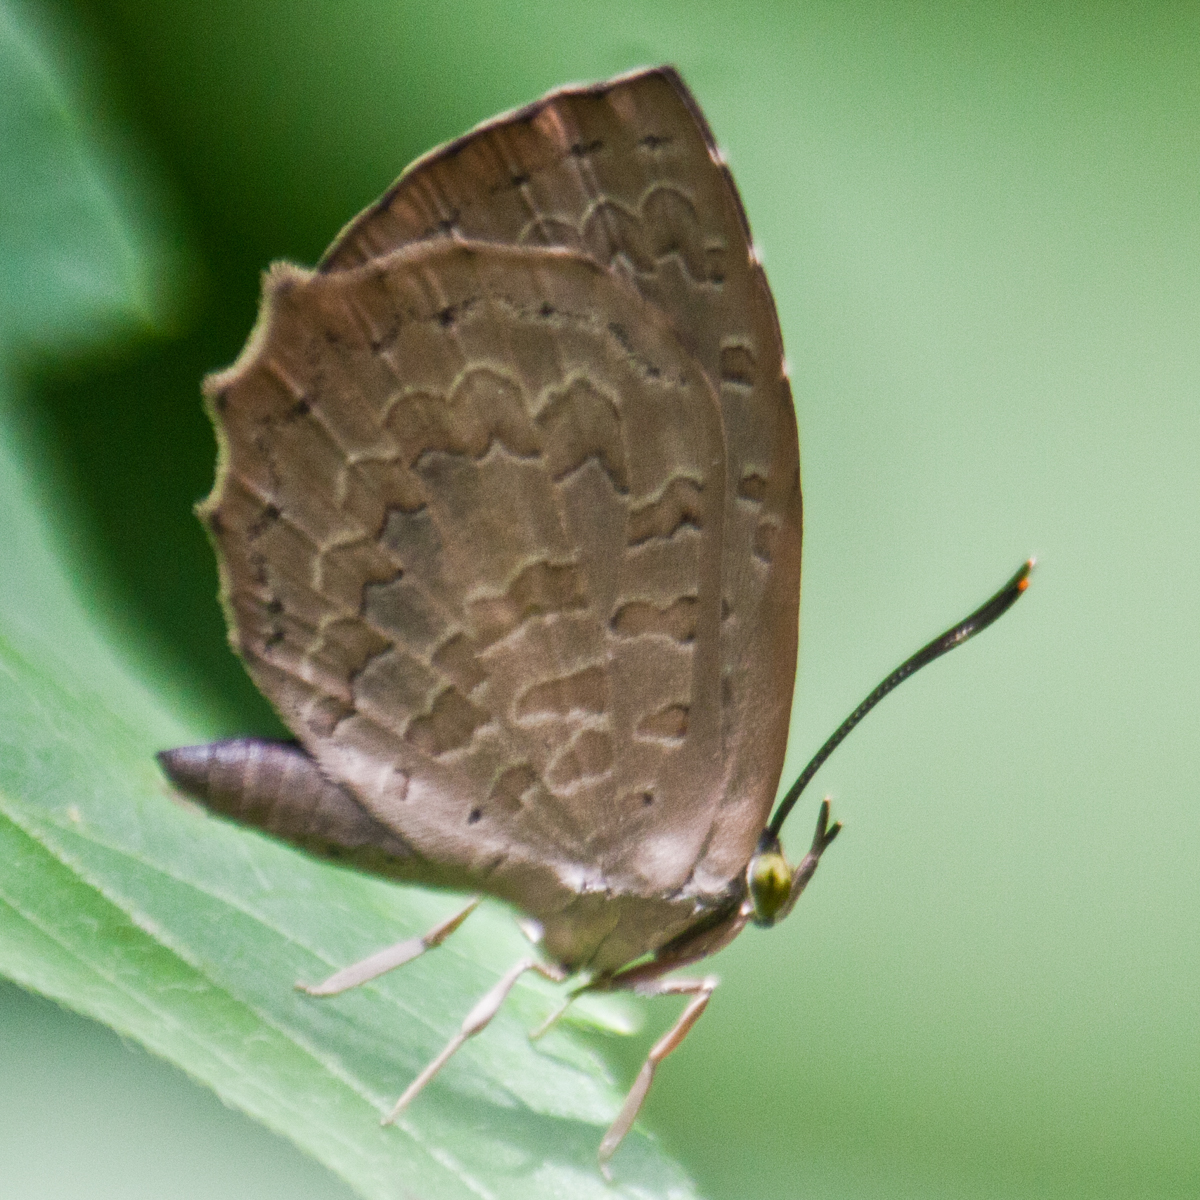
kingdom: Animalia
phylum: Arthropoda
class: Insecta
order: Lepidoptera
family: Lycaenidae
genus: Miletus
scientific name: Miletus chinensis
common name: Common brownie
